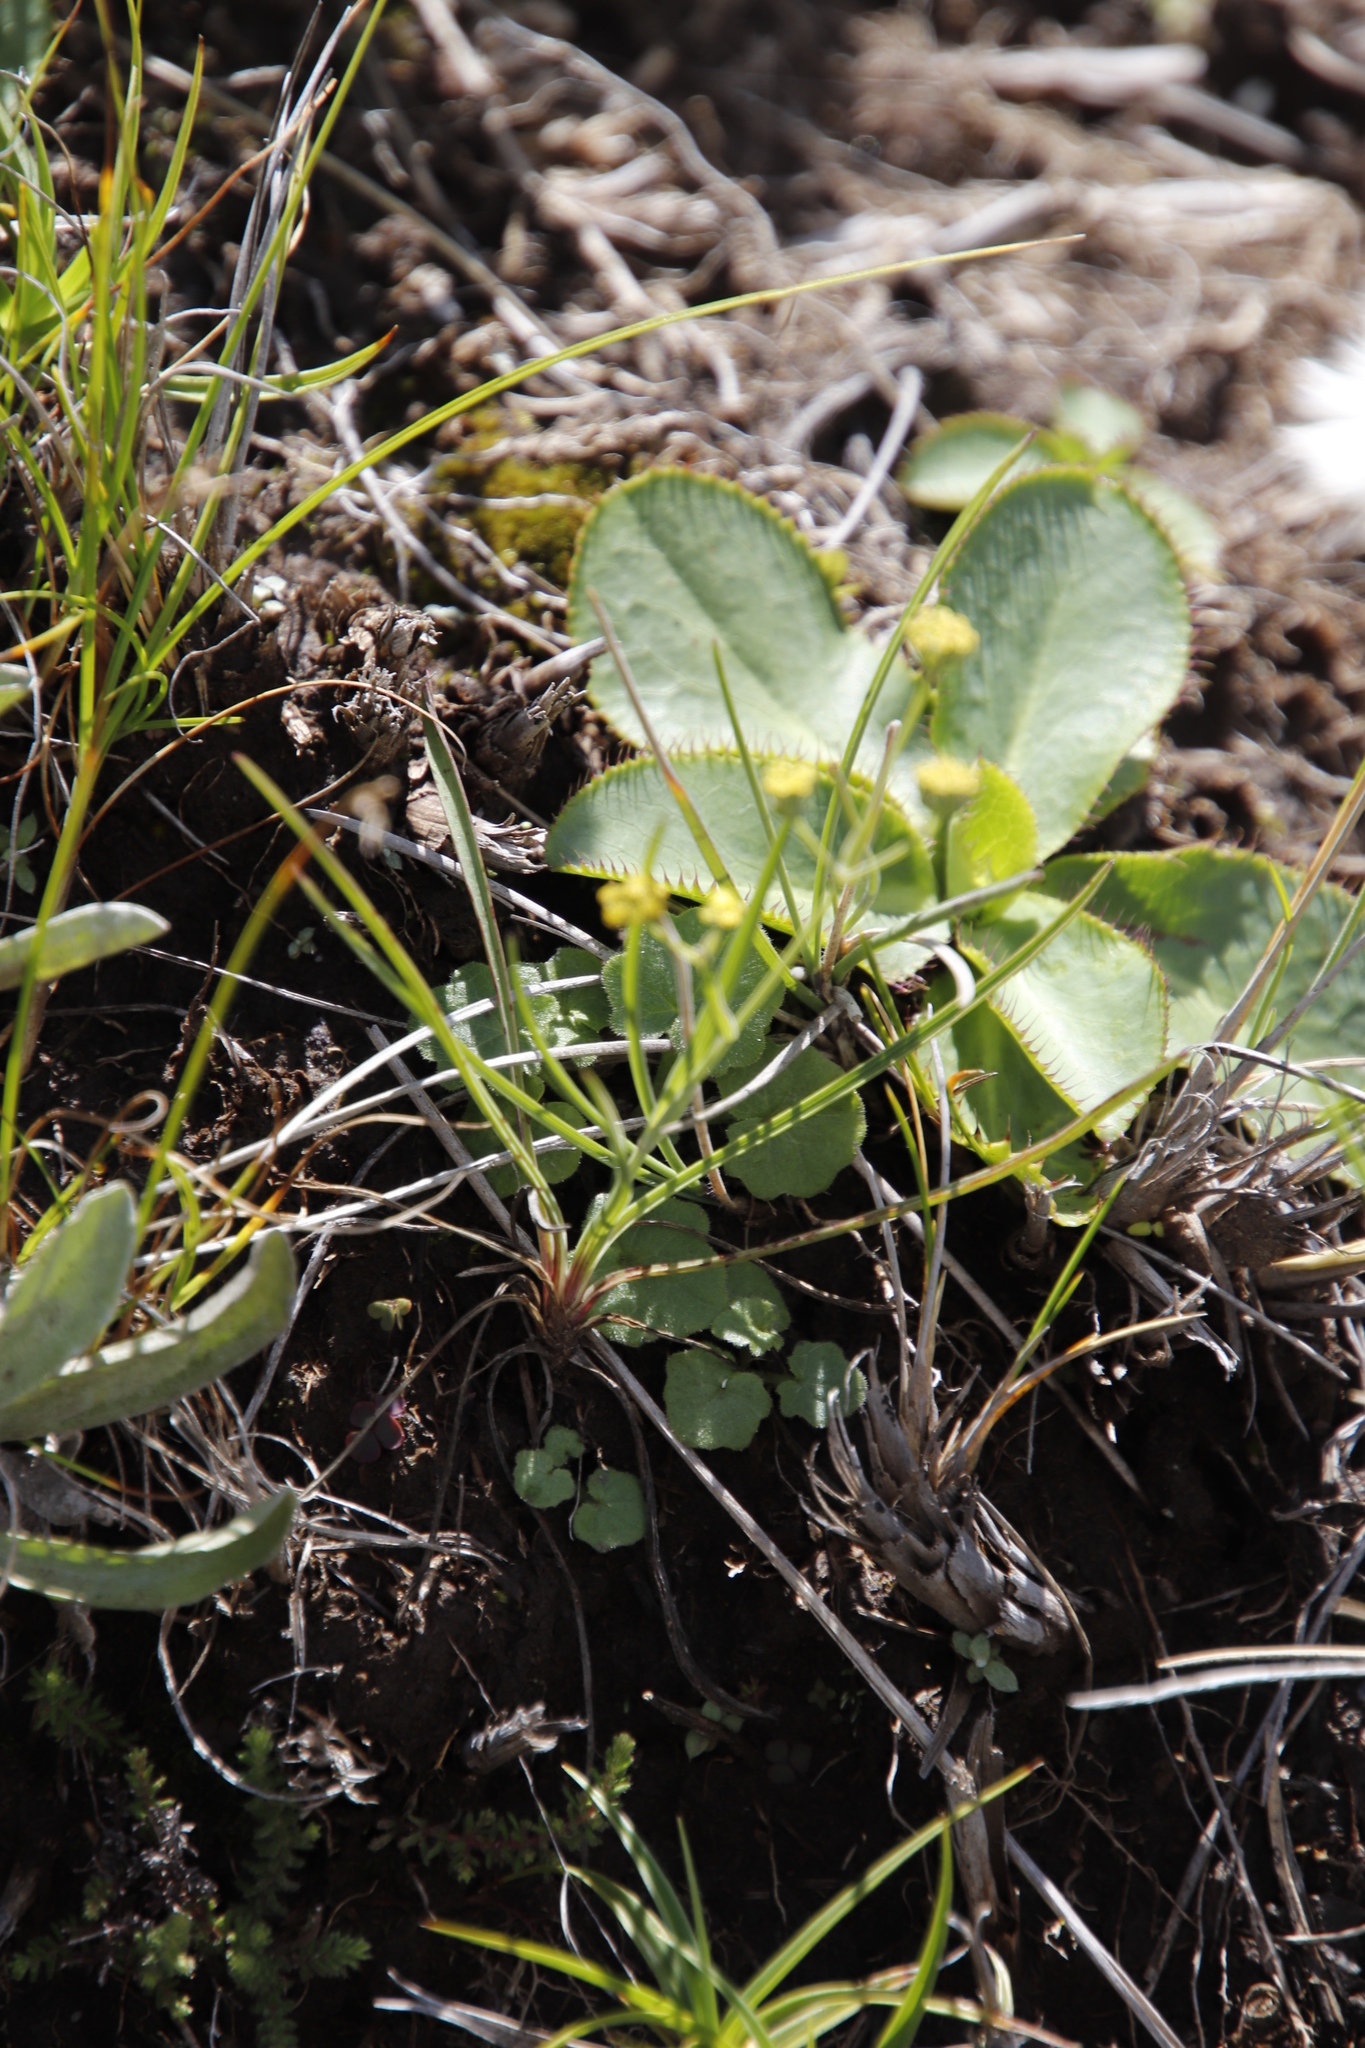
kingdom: Plantae
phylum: Tracheophyta
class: Magnoliopsida
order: Apiales
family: Apiaceae
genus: Alepidea
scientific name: Alepidea thodei
